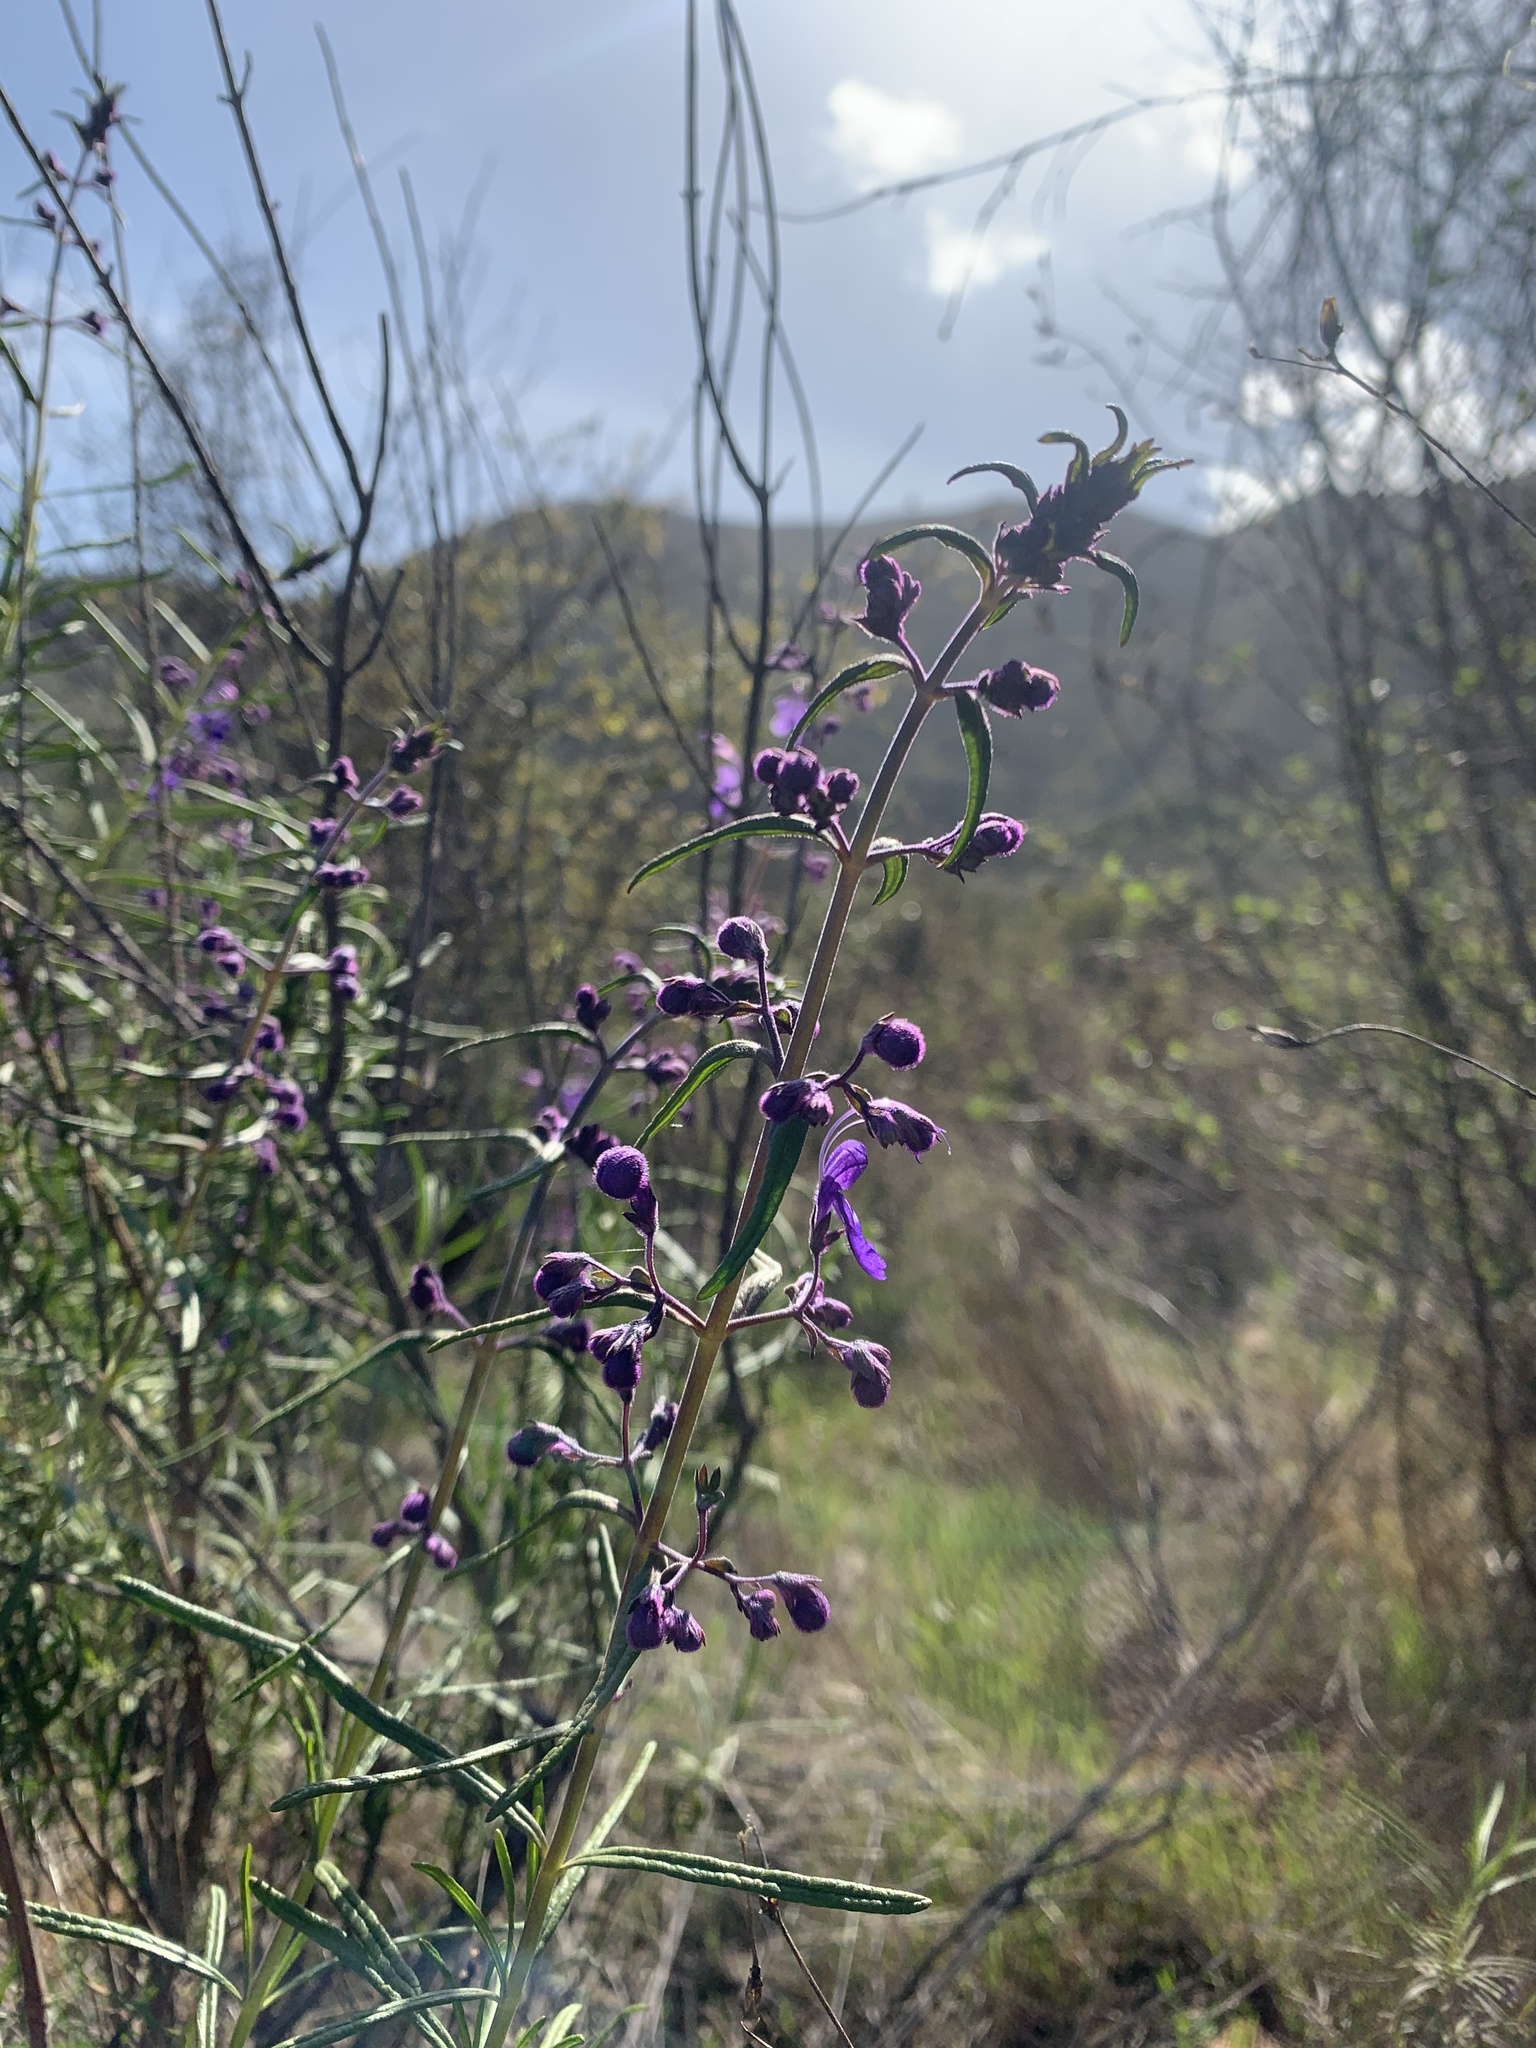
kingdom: Plantae
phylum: Tracheophyta
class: Magnoliopsida
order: Lamiales
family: Lamiaceae
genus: Trichostema
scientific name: Trichostema parishii
